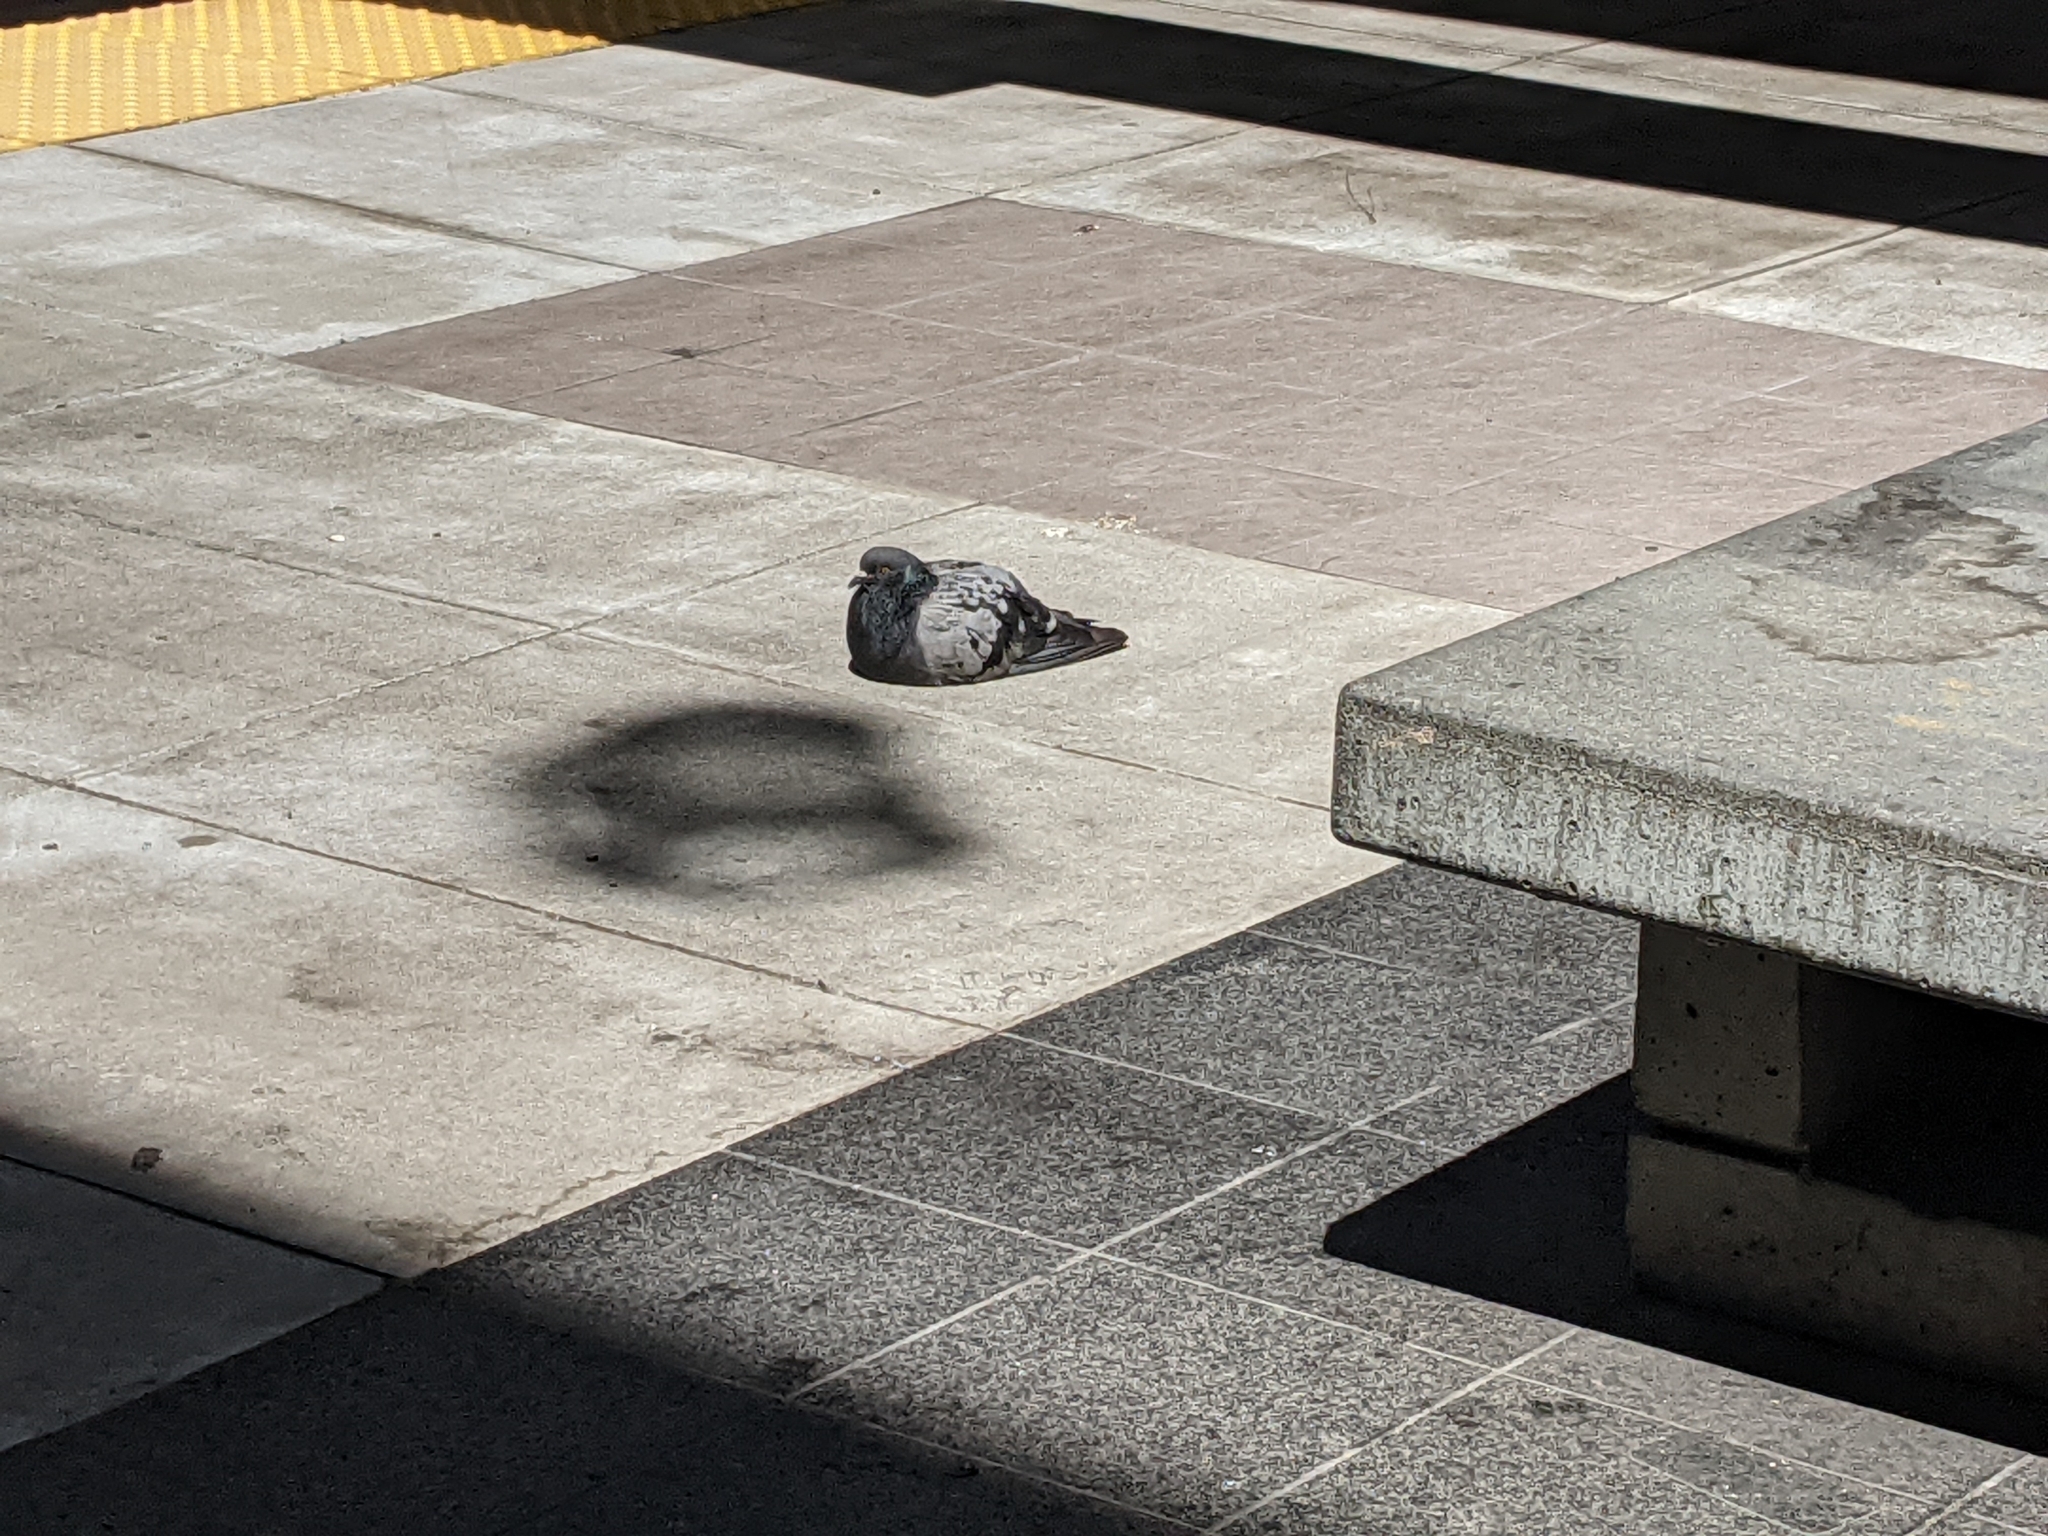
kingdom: Animalia
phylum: Chordata
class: Aves
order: Columbiformes
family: Columbidae
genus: Columba
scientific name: Columba livia
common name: Rock pigeon
